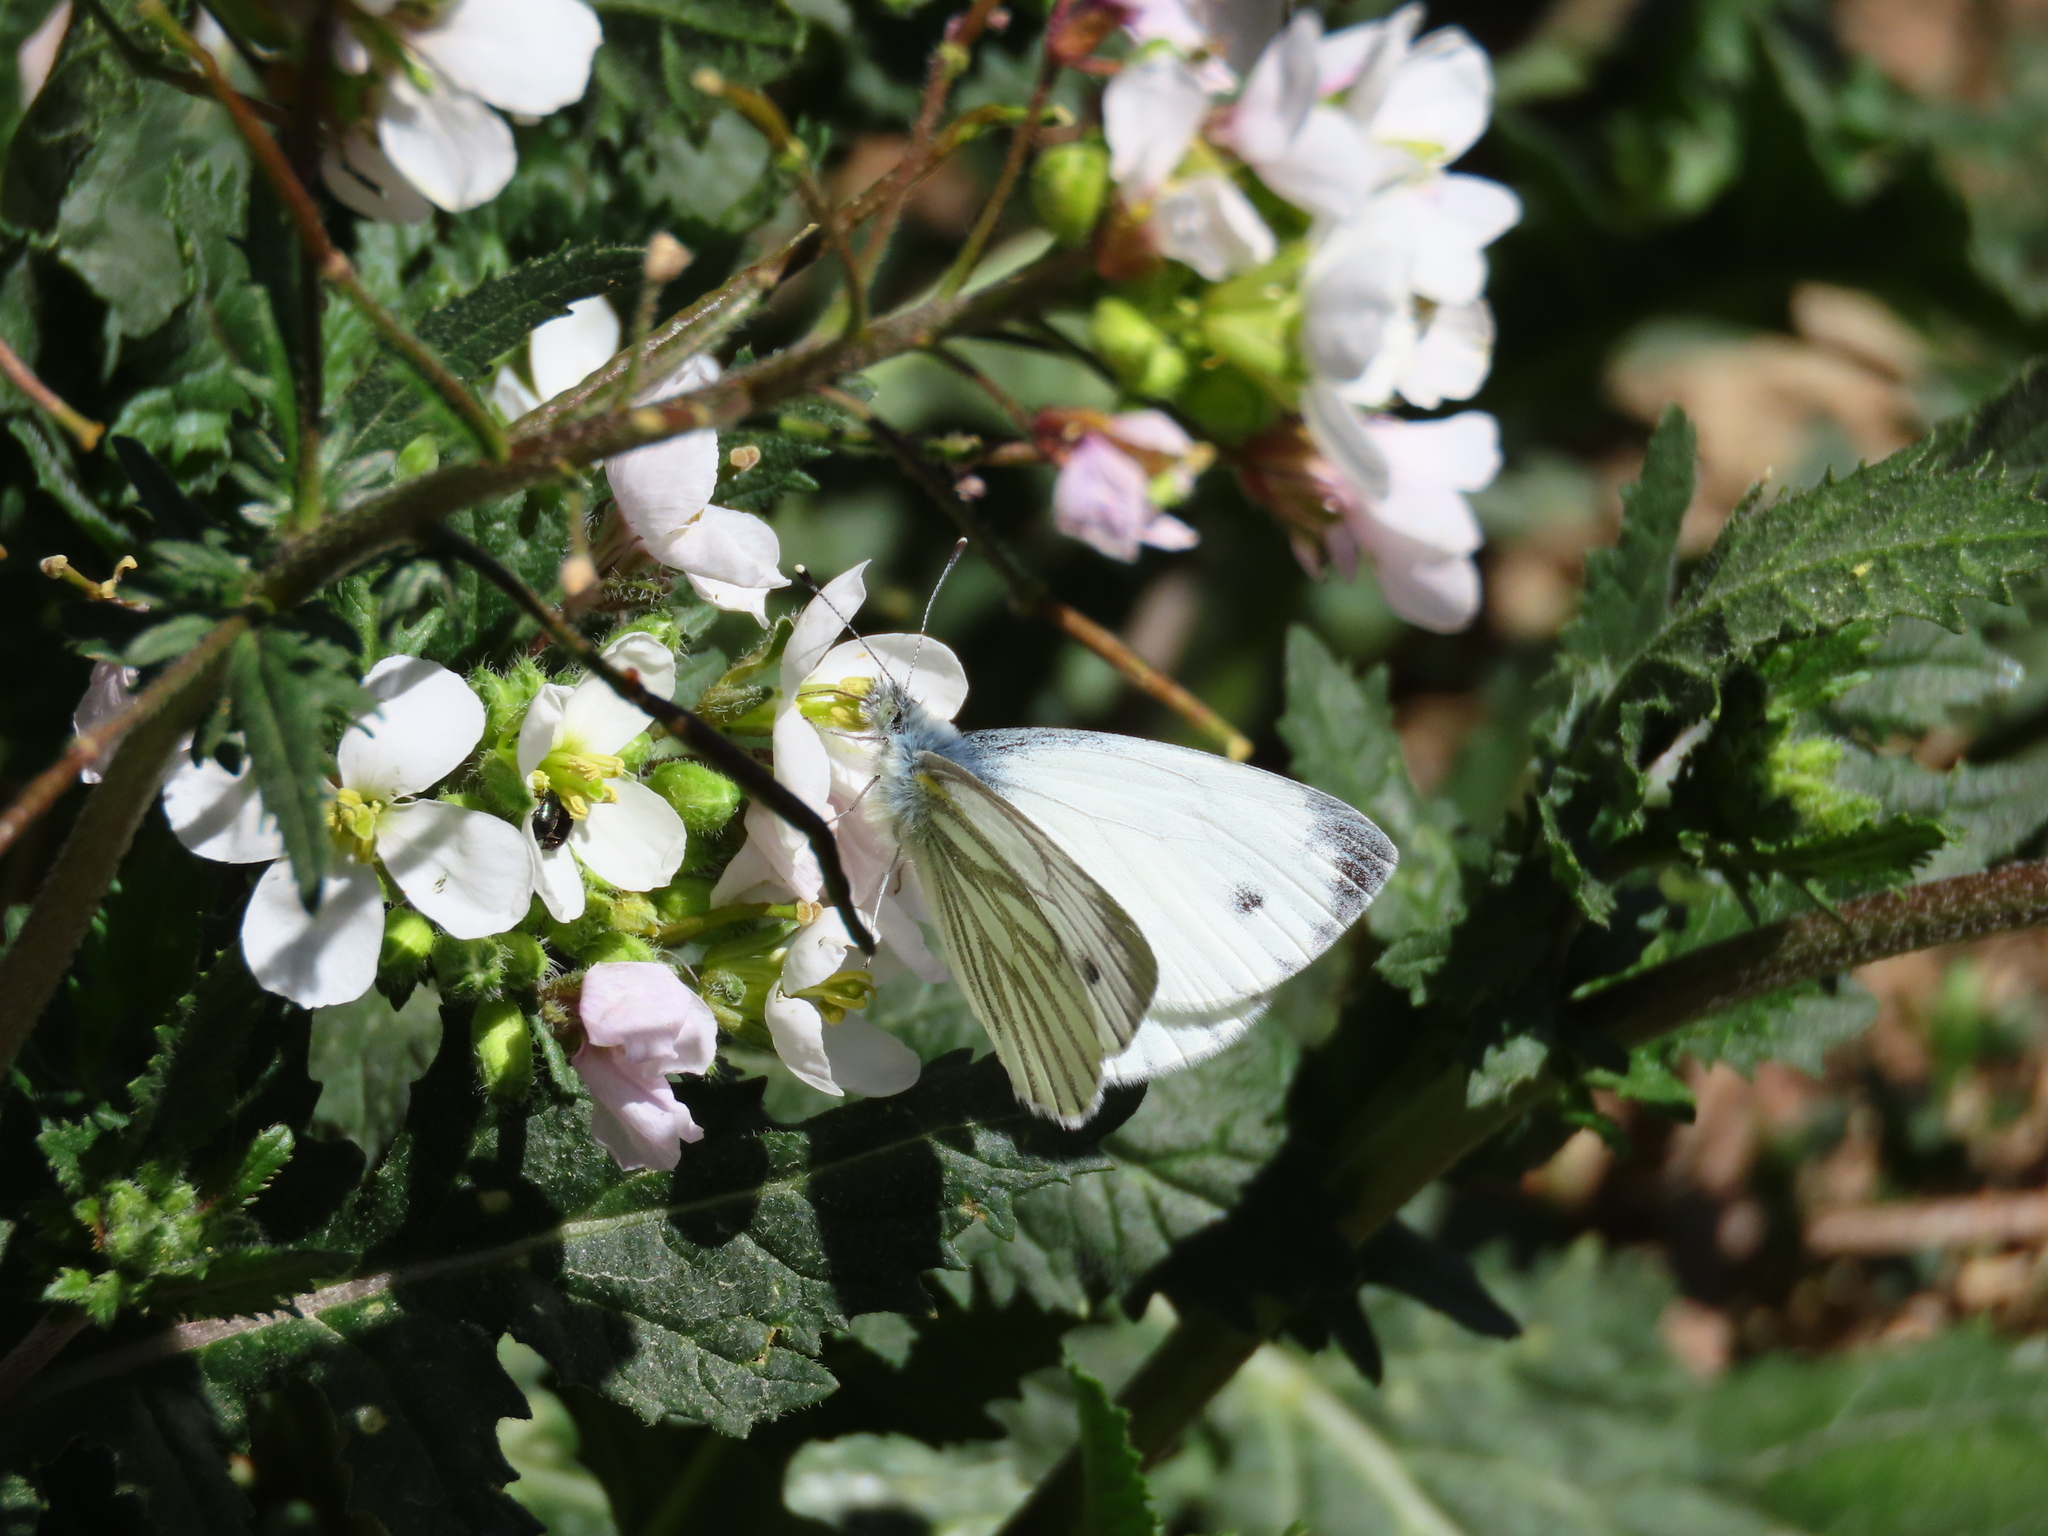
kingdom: Animalia
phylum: Arthropoda
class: Insecta
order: Lepidoptera
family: Pieridae
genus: Pieris
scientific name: Pieris napi
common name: Green-veined white
